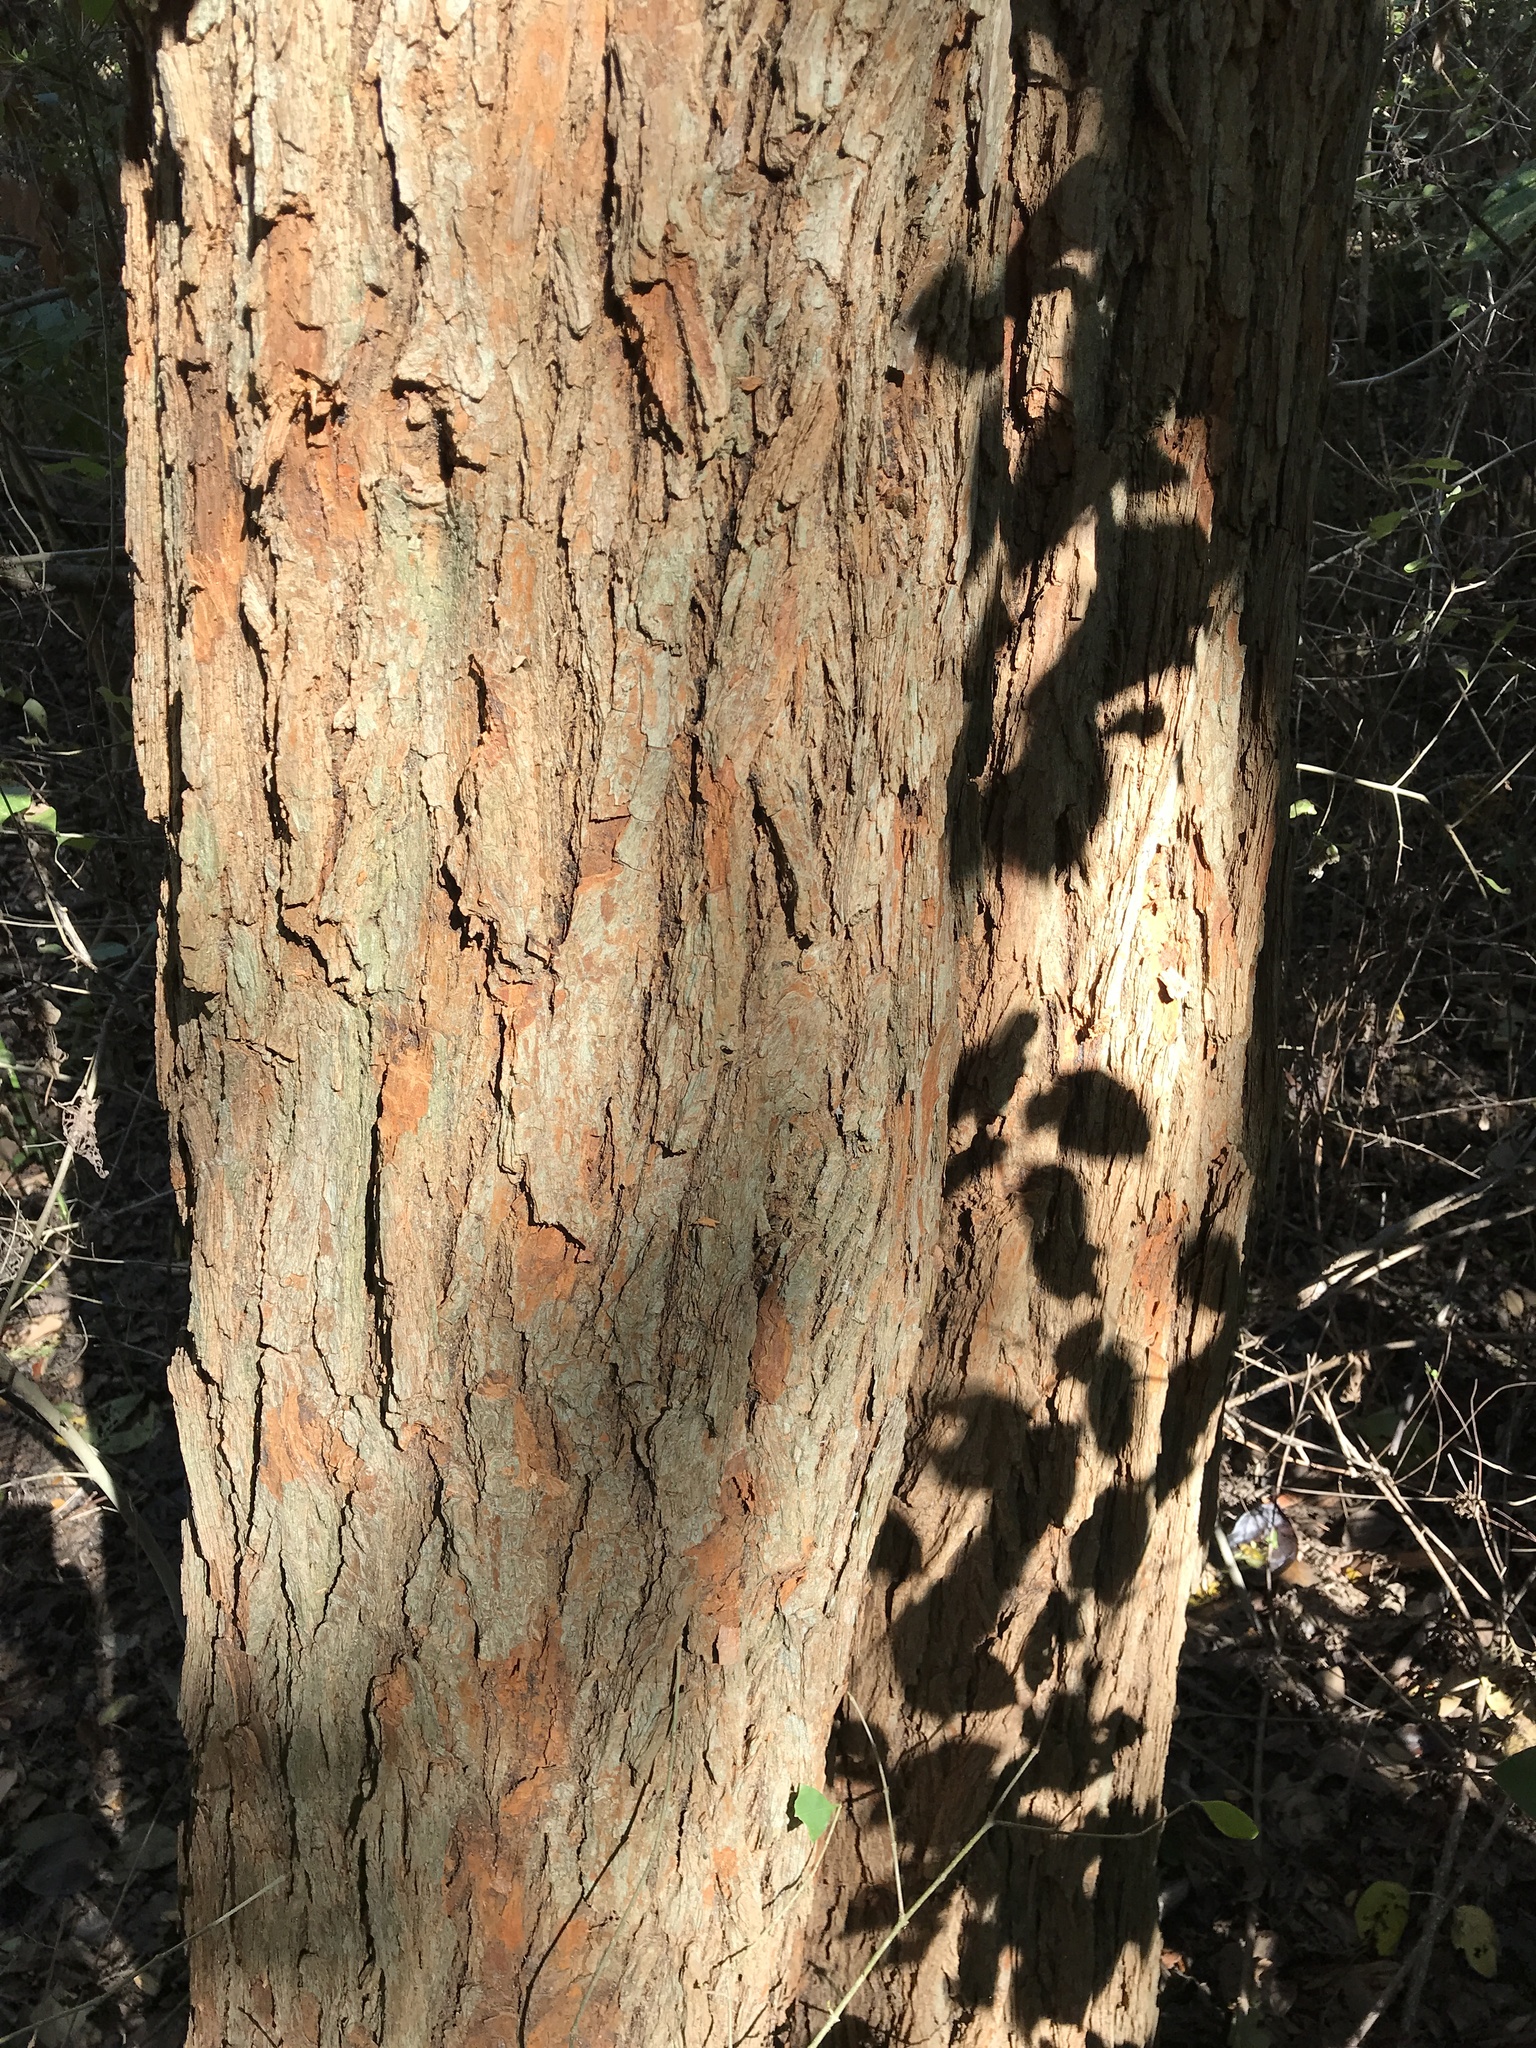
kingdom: Plantae
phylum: Tracheophyta
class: Magnoliopsida
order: Rosales
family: Moraceae
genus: Maclura
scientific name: Maclura pomifera
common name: Osage-orange
